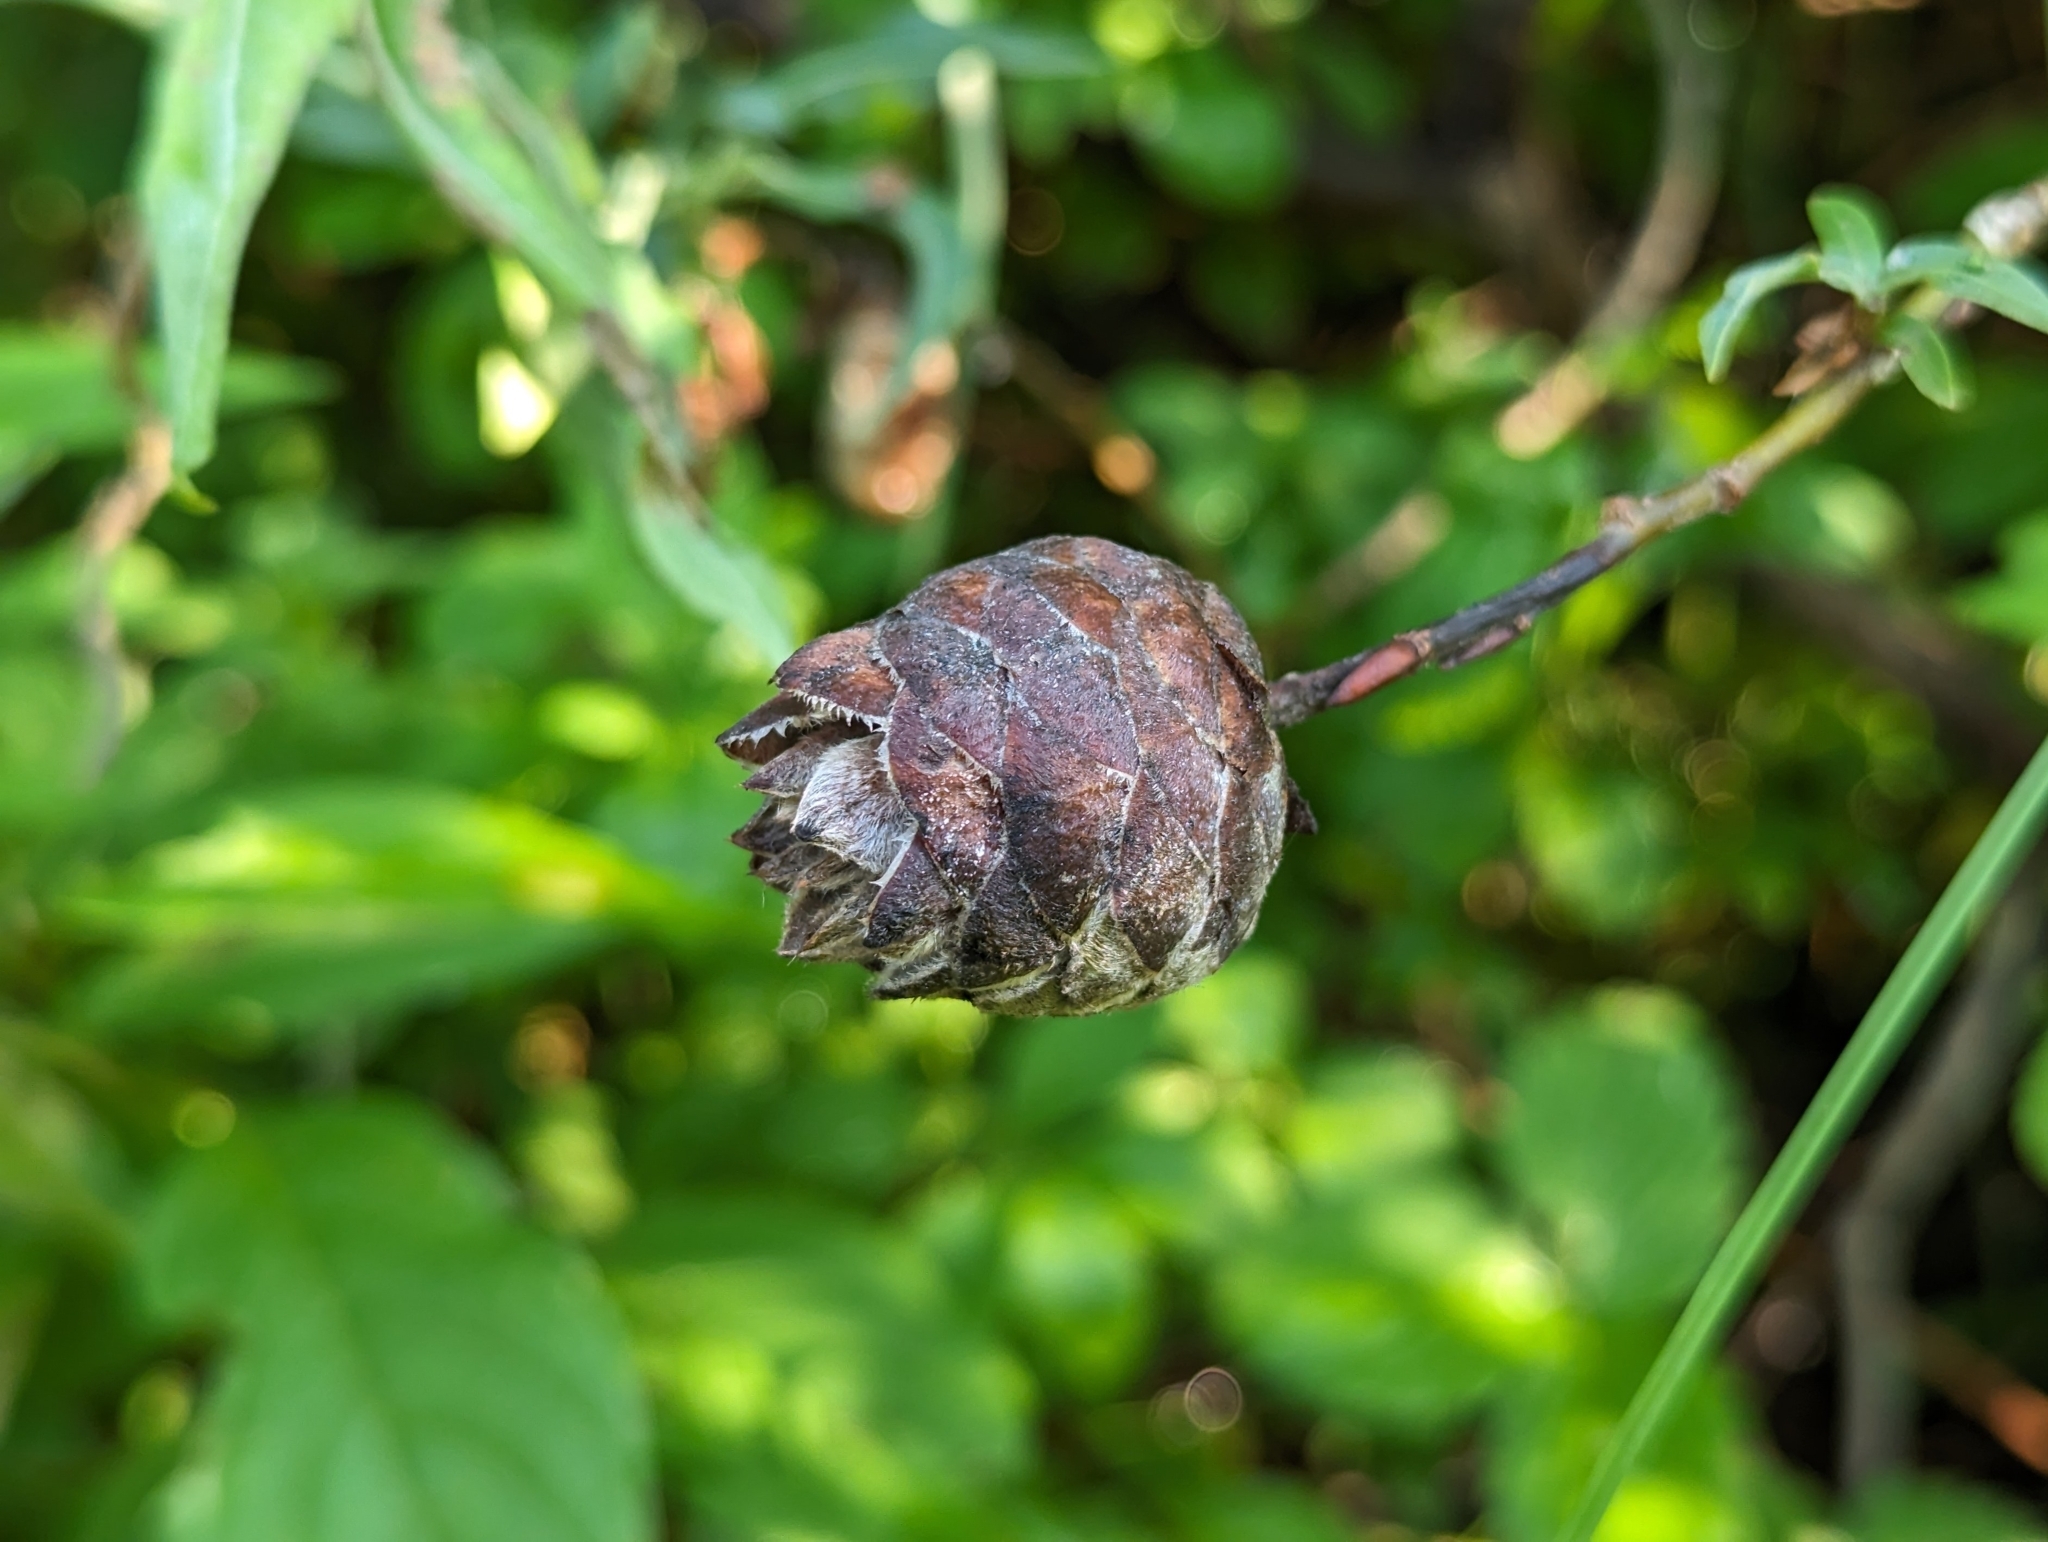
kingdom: Animalia
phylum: Arthropoda
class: Insecta
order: Diptera
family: Cecidomyiidae
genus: Rabdophaga
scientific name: Rabdophaga strobiloides
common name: Willow pinecone gall midge
